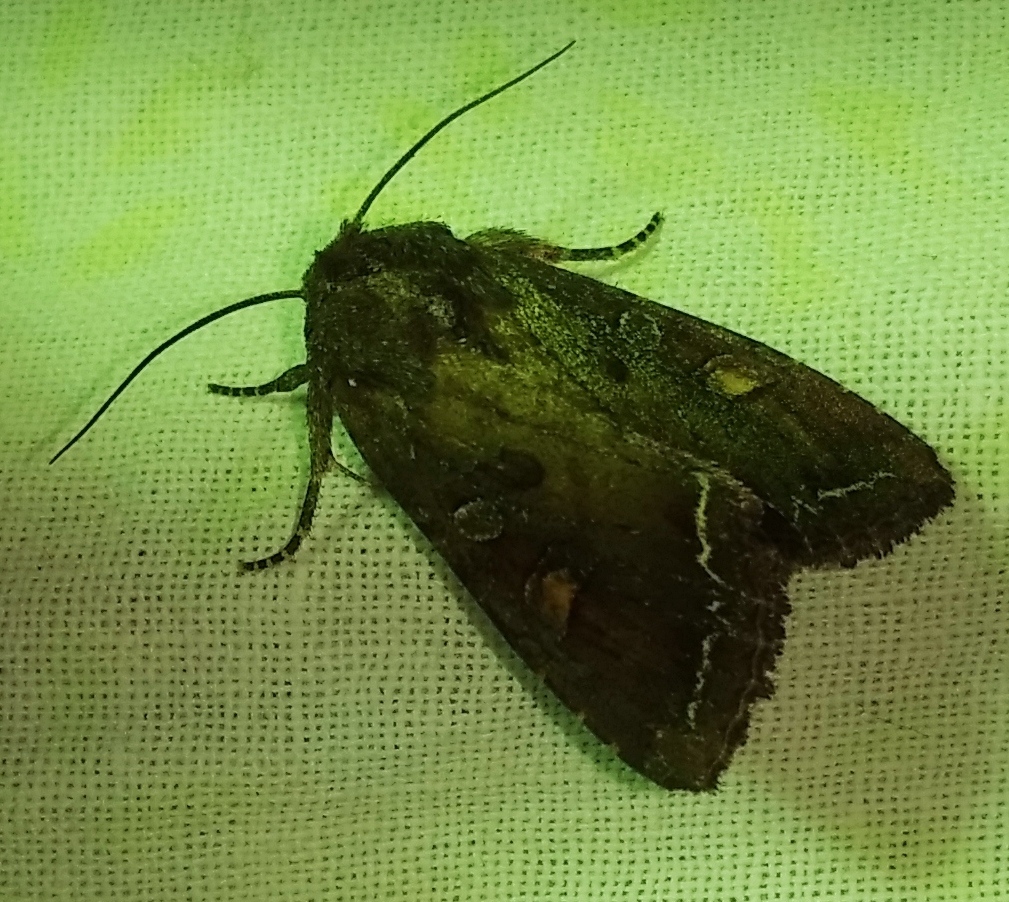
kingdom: Animalia
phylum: Arthropoda
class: Insecta
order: Lepidoptera
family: Noctuidae
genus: Lacanobia
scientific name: Lacanobia oleracea
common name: Bright-line brown-eye
